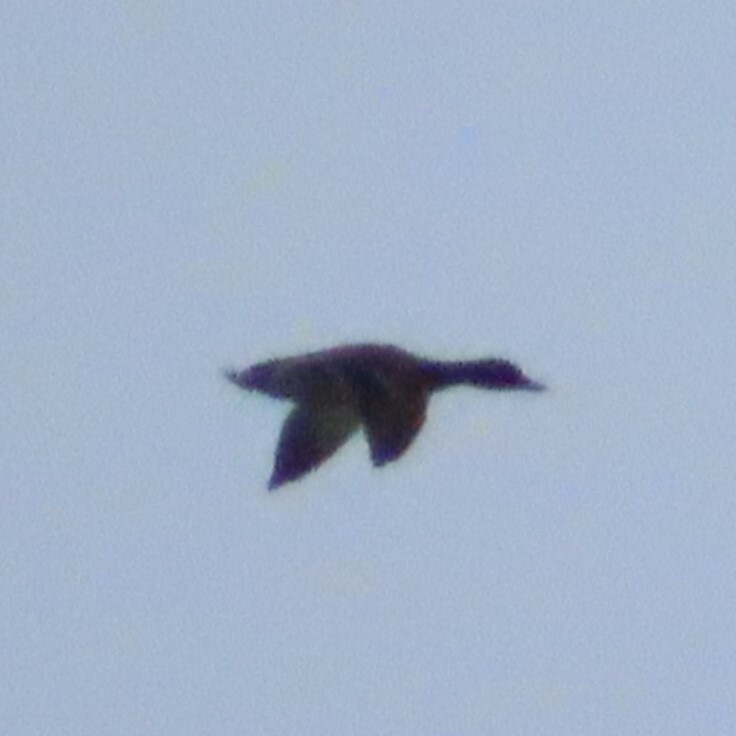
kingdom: Animalia
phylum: Chordata
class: Aves
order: Anseriformes
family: Anatidae
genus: Anas
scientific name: Anas platyrhynchos
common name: Mallard
